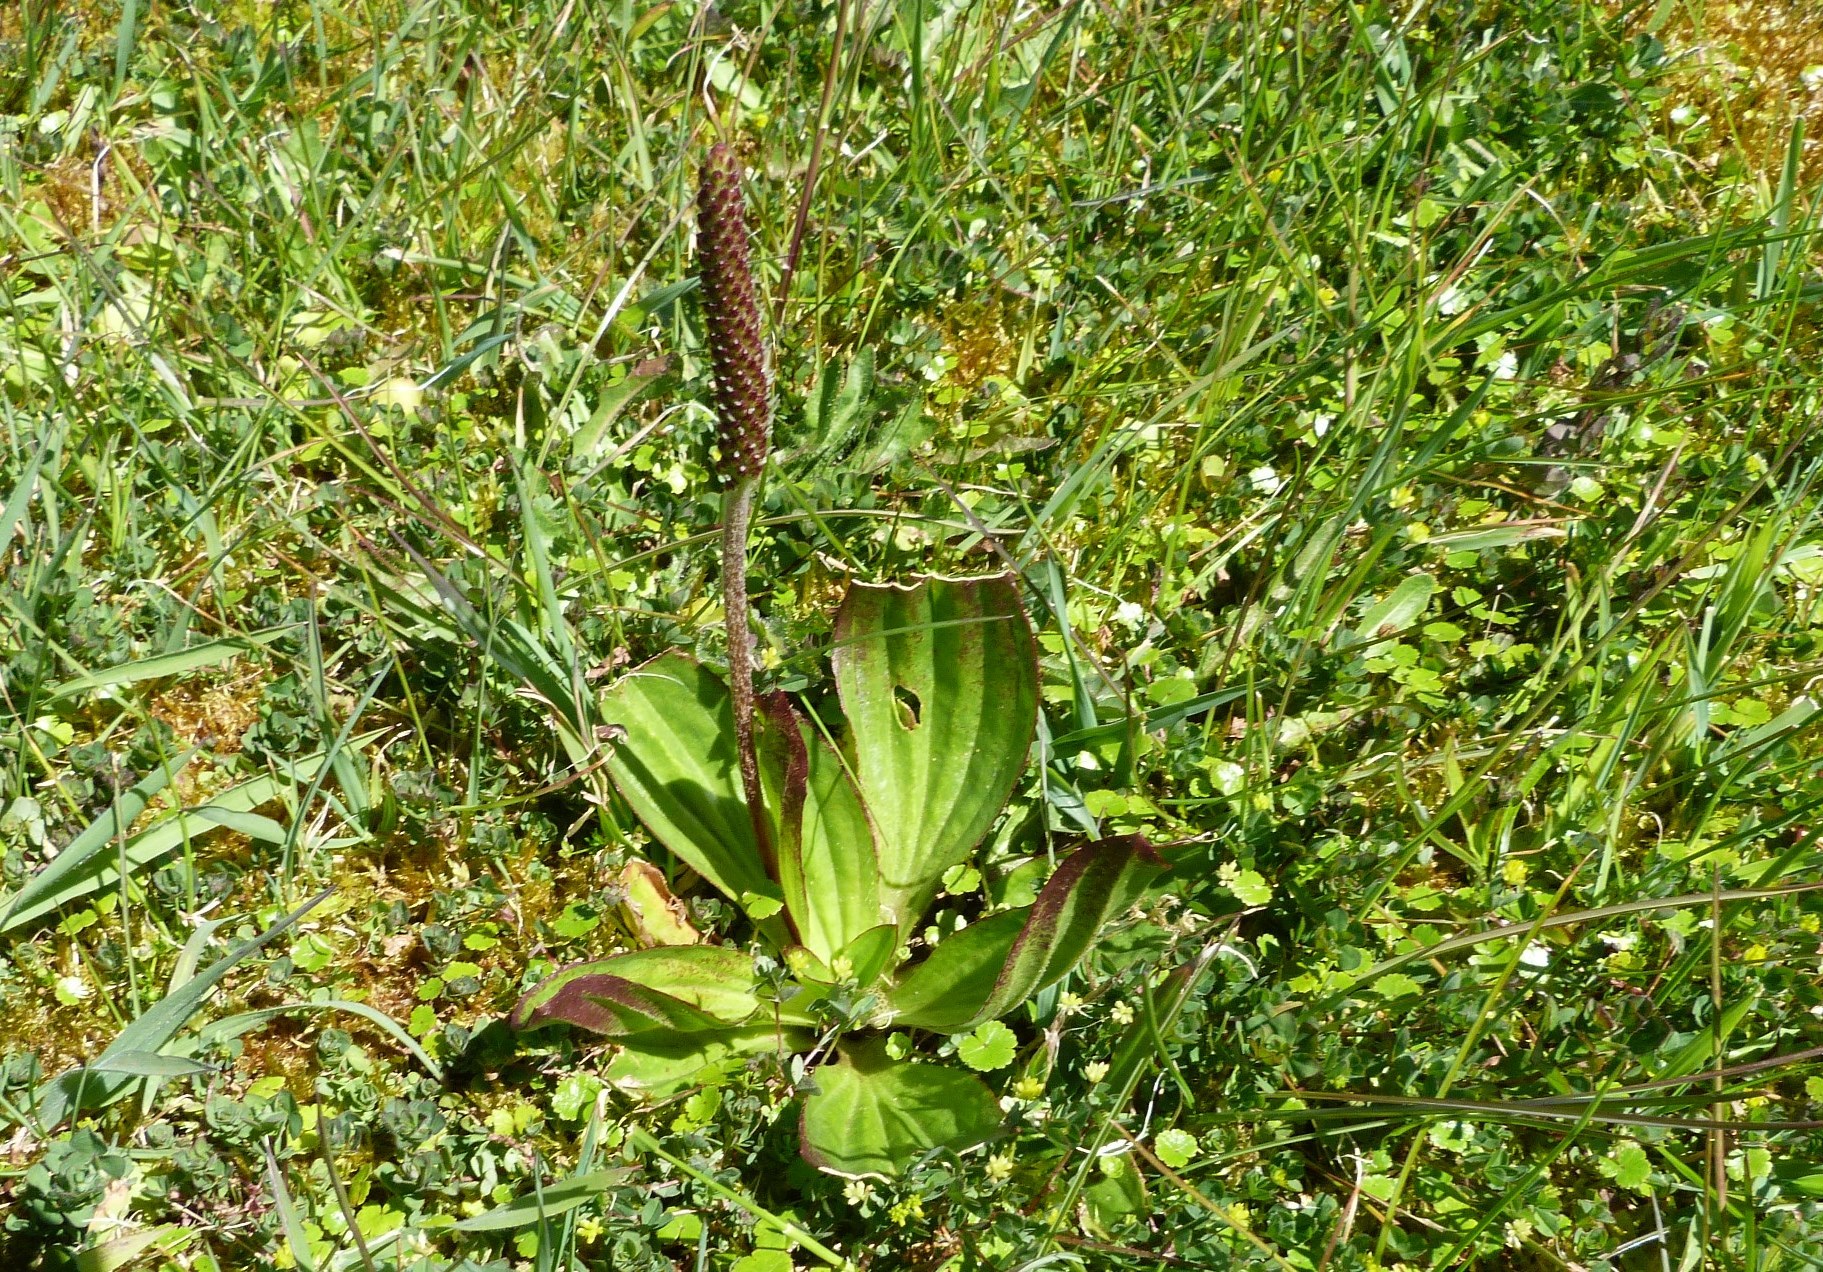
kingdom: Plantae
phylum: Tracheophyta
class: Magnoliopsida
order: Lamiales
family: Plantaginaceae
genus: Plantago
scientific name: Plantago australis
